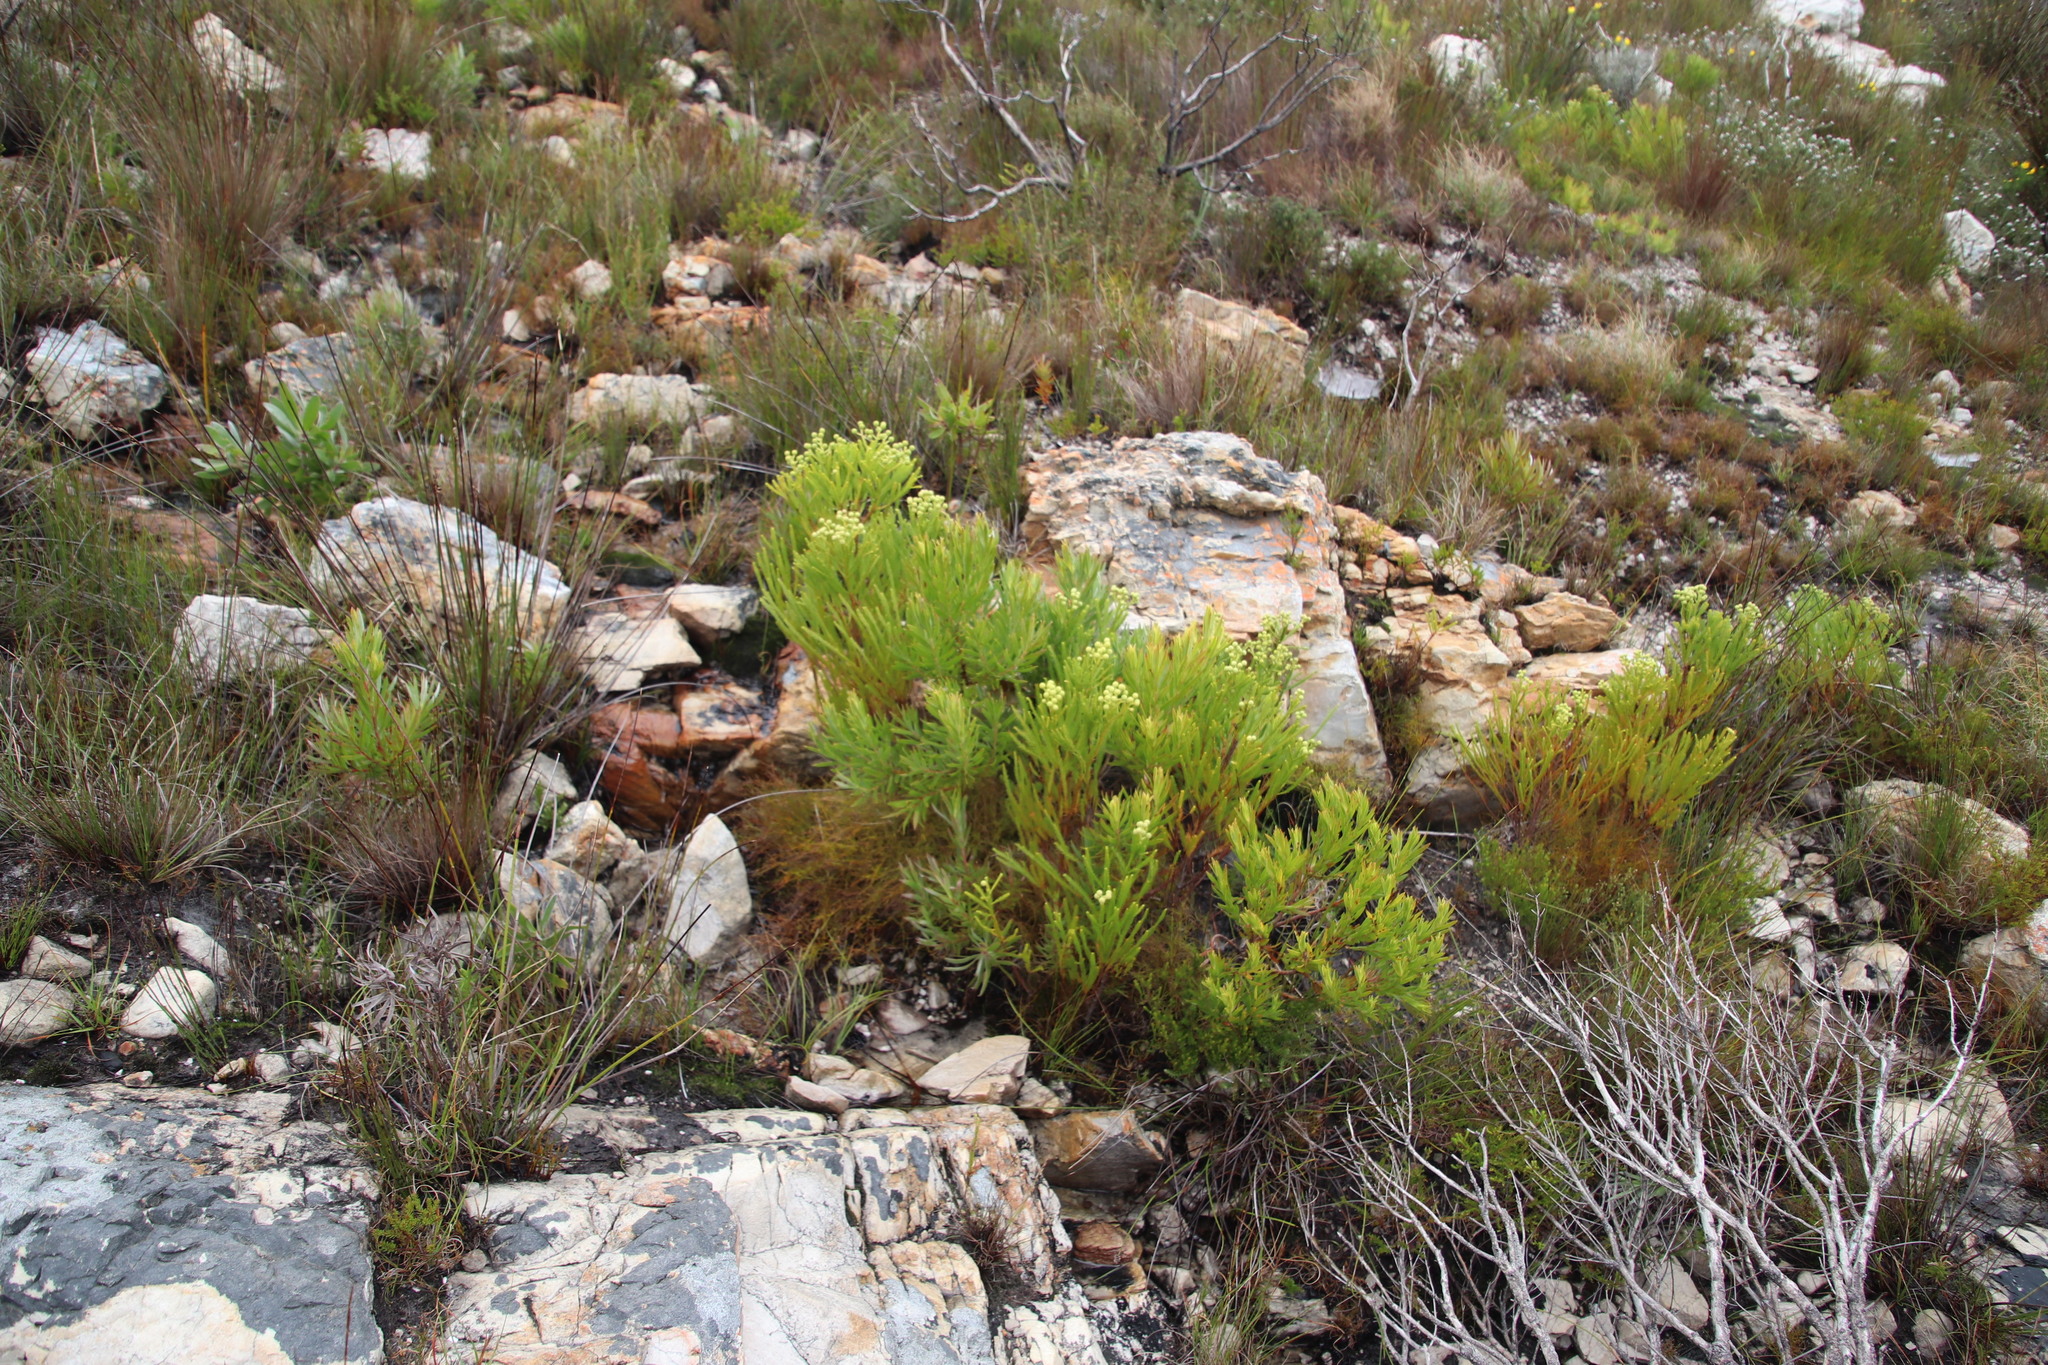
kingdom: Plantae
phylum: Tracheophyta
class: Magnoliopsida
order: Bruniales
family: Bruniaceae
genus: Berzelia
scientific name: Berzelia abrotanoides
